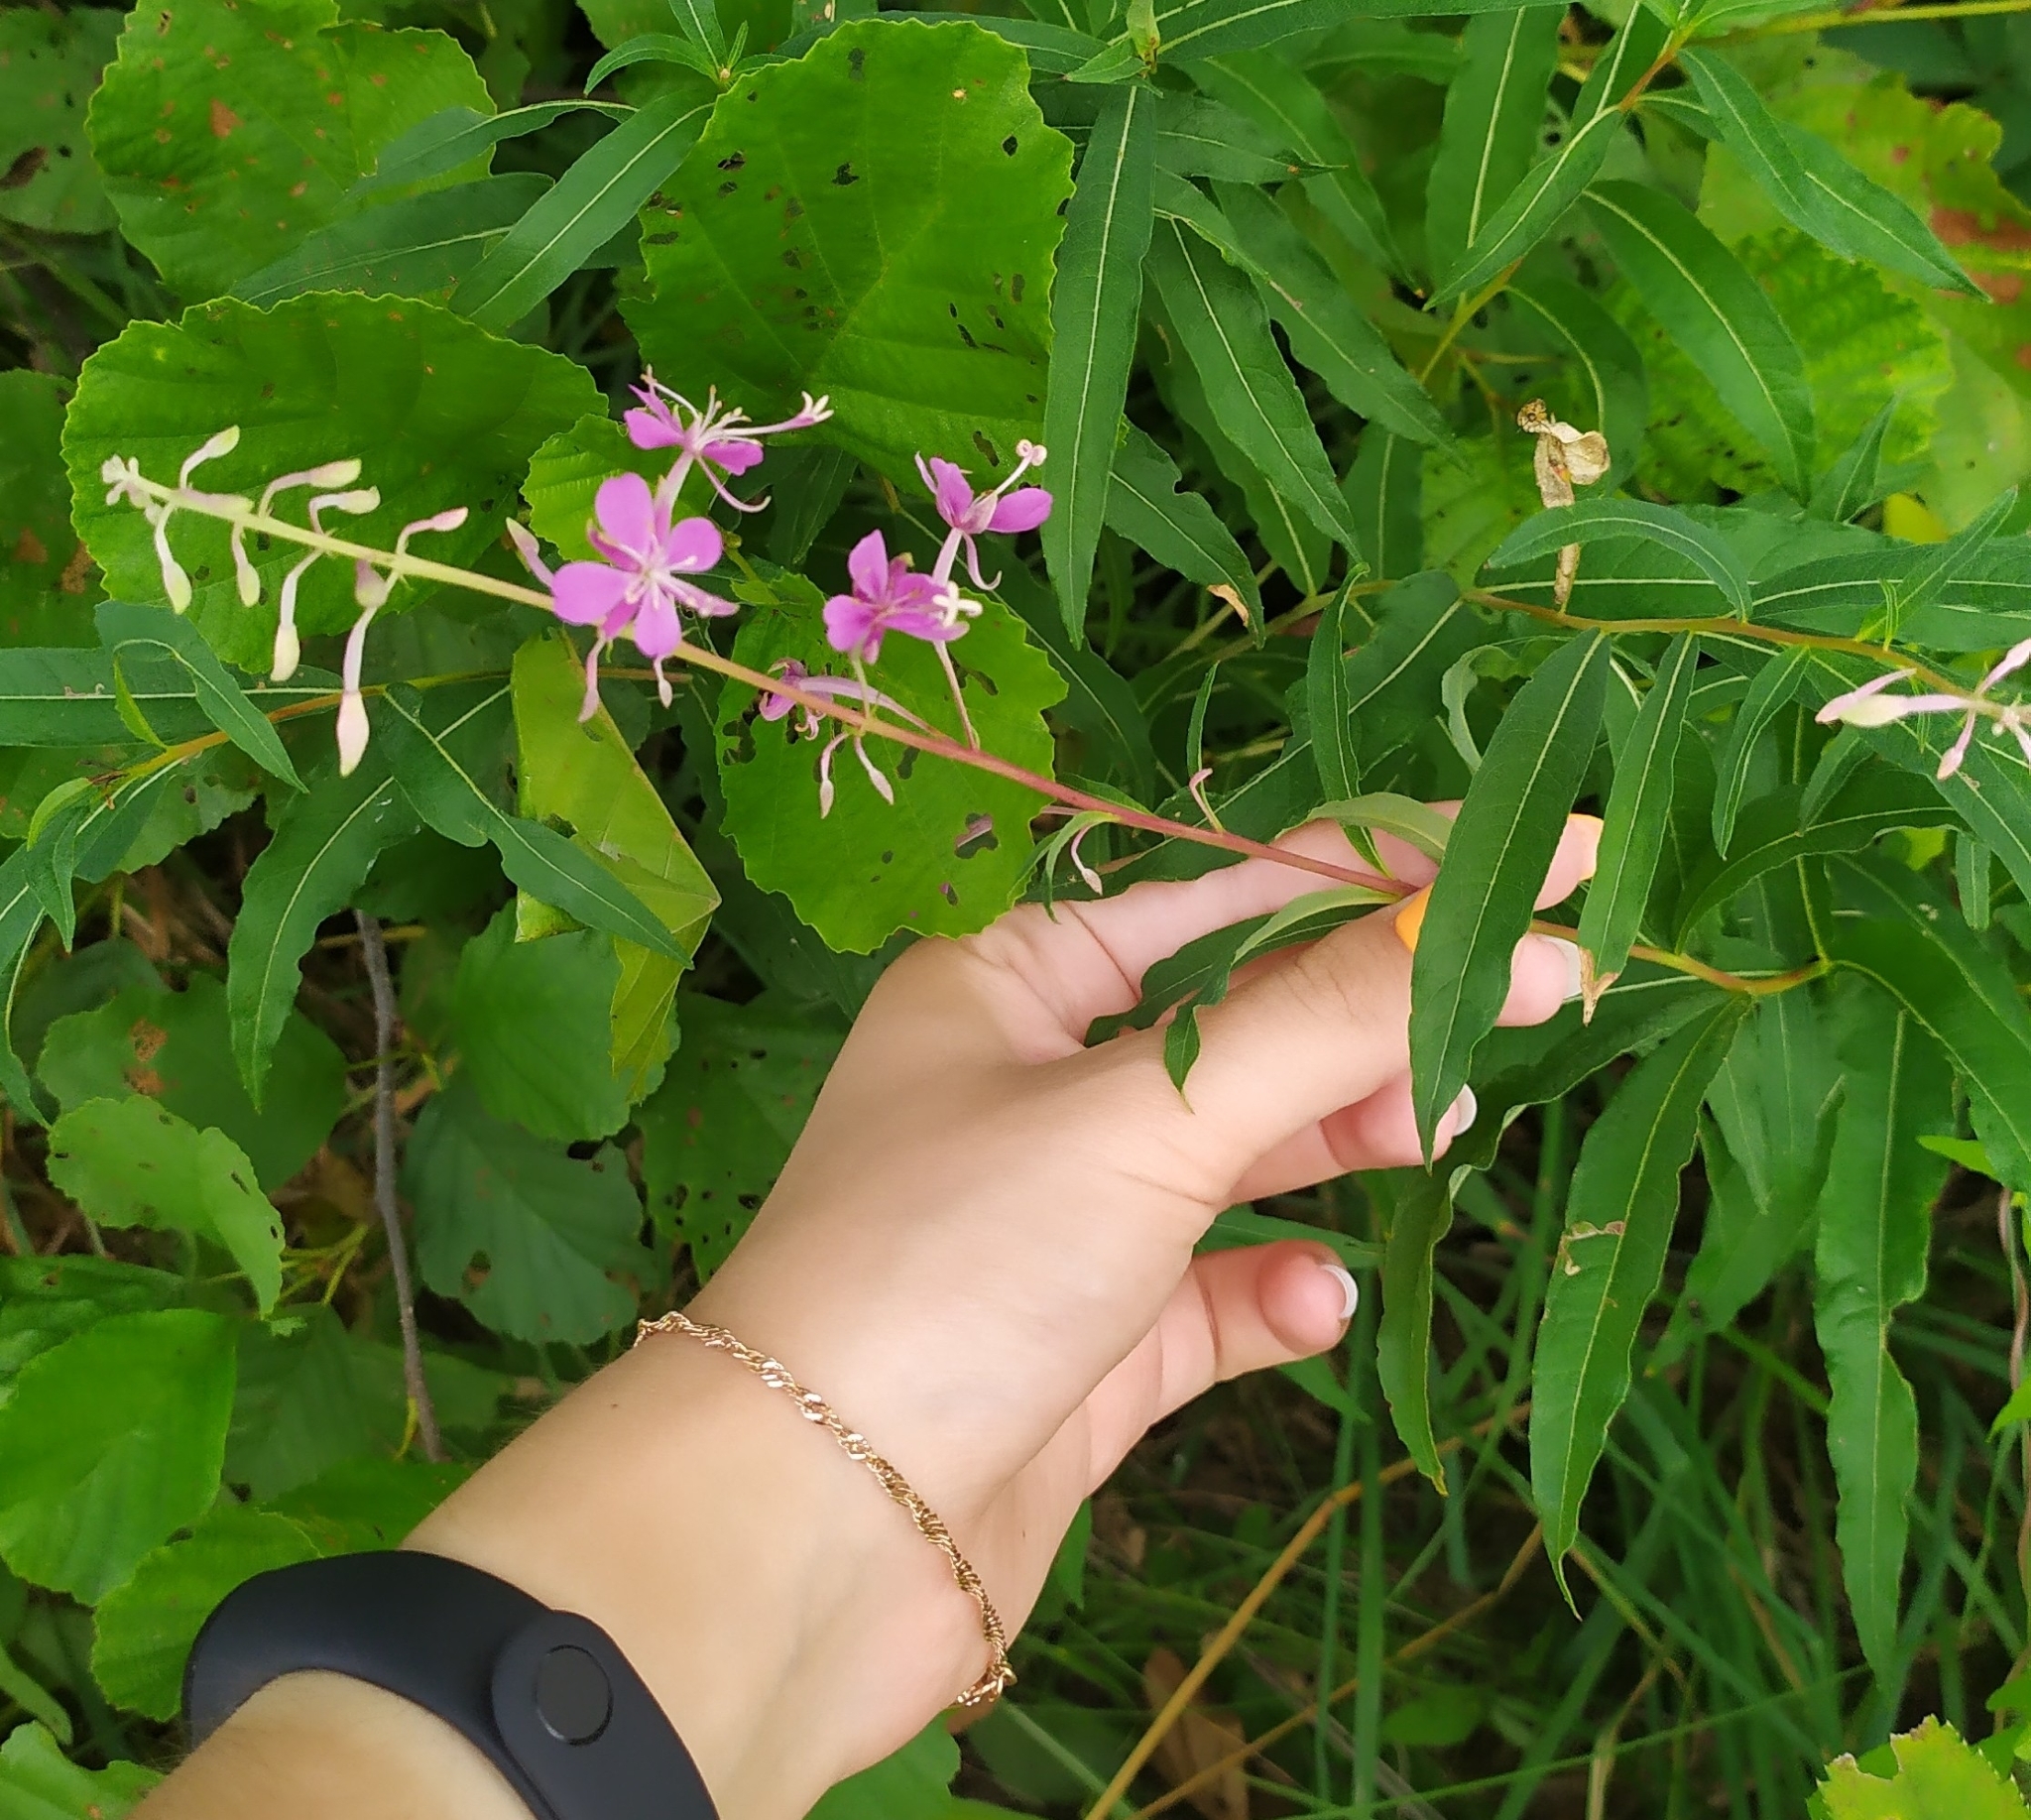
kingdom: Plantae
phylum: Tracheophyta
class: Magnoliopsida
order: Myrtales
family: Onagraceae
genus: Chamaenerion
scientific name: Chamaenerion angustifolium
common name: Fireweed
